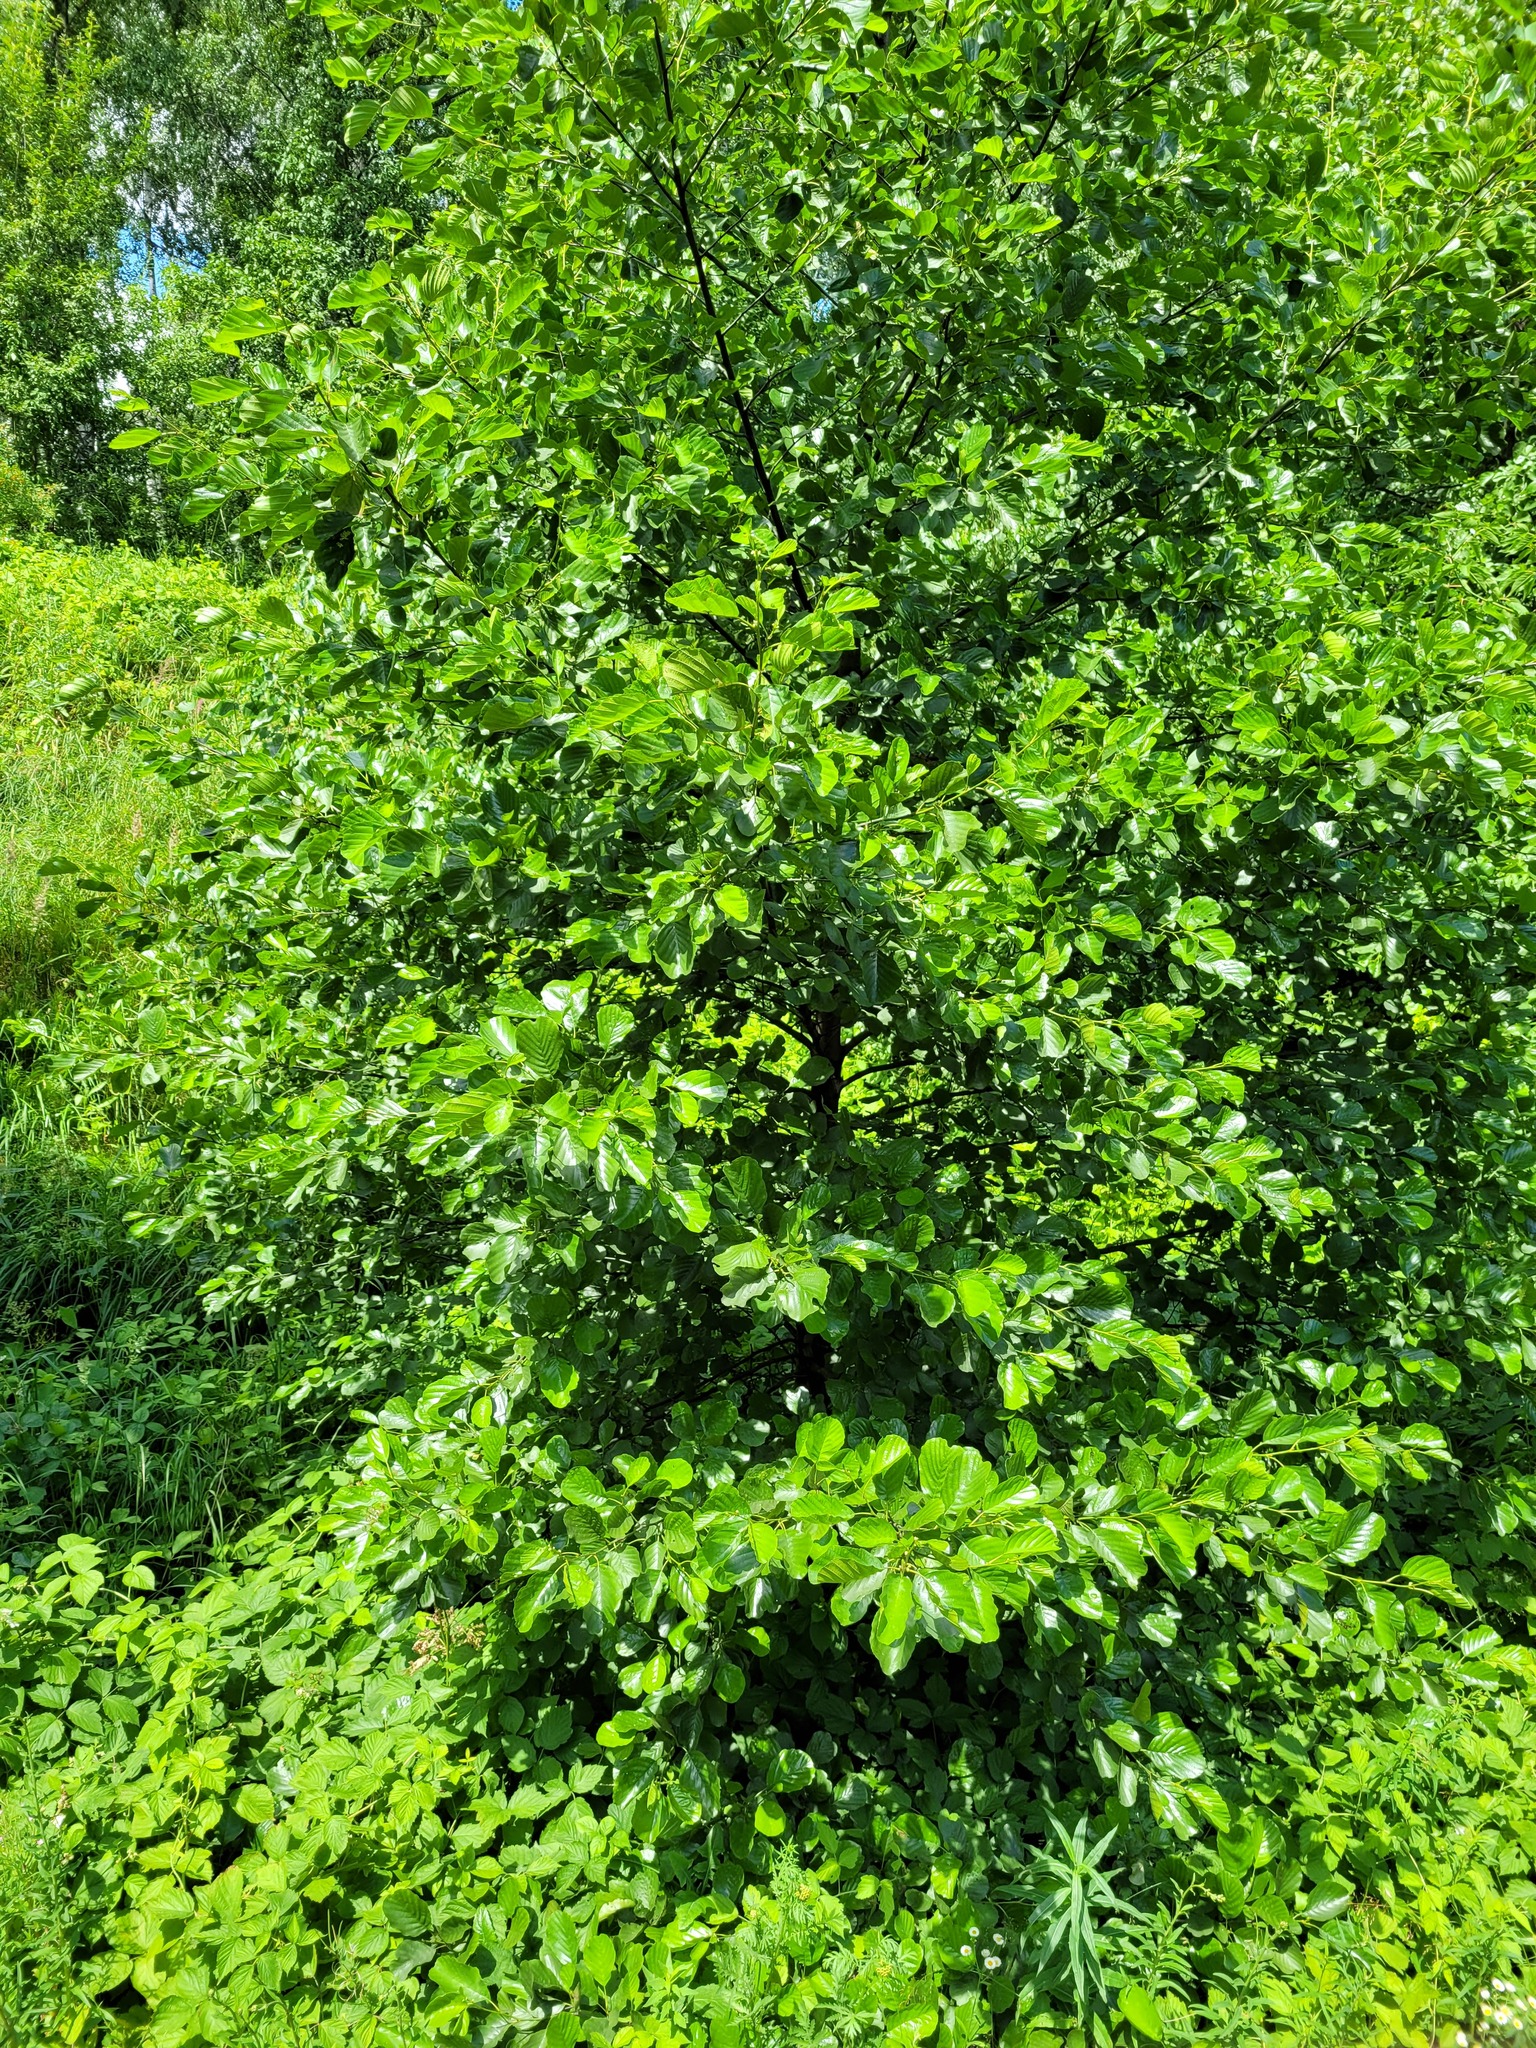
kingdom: Plantae
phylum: Tracheophyta
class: Magnoliopsida
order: Fagales
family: Betulaceae
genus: Alnus
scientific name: Alnus glutinosa
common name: Black alder
